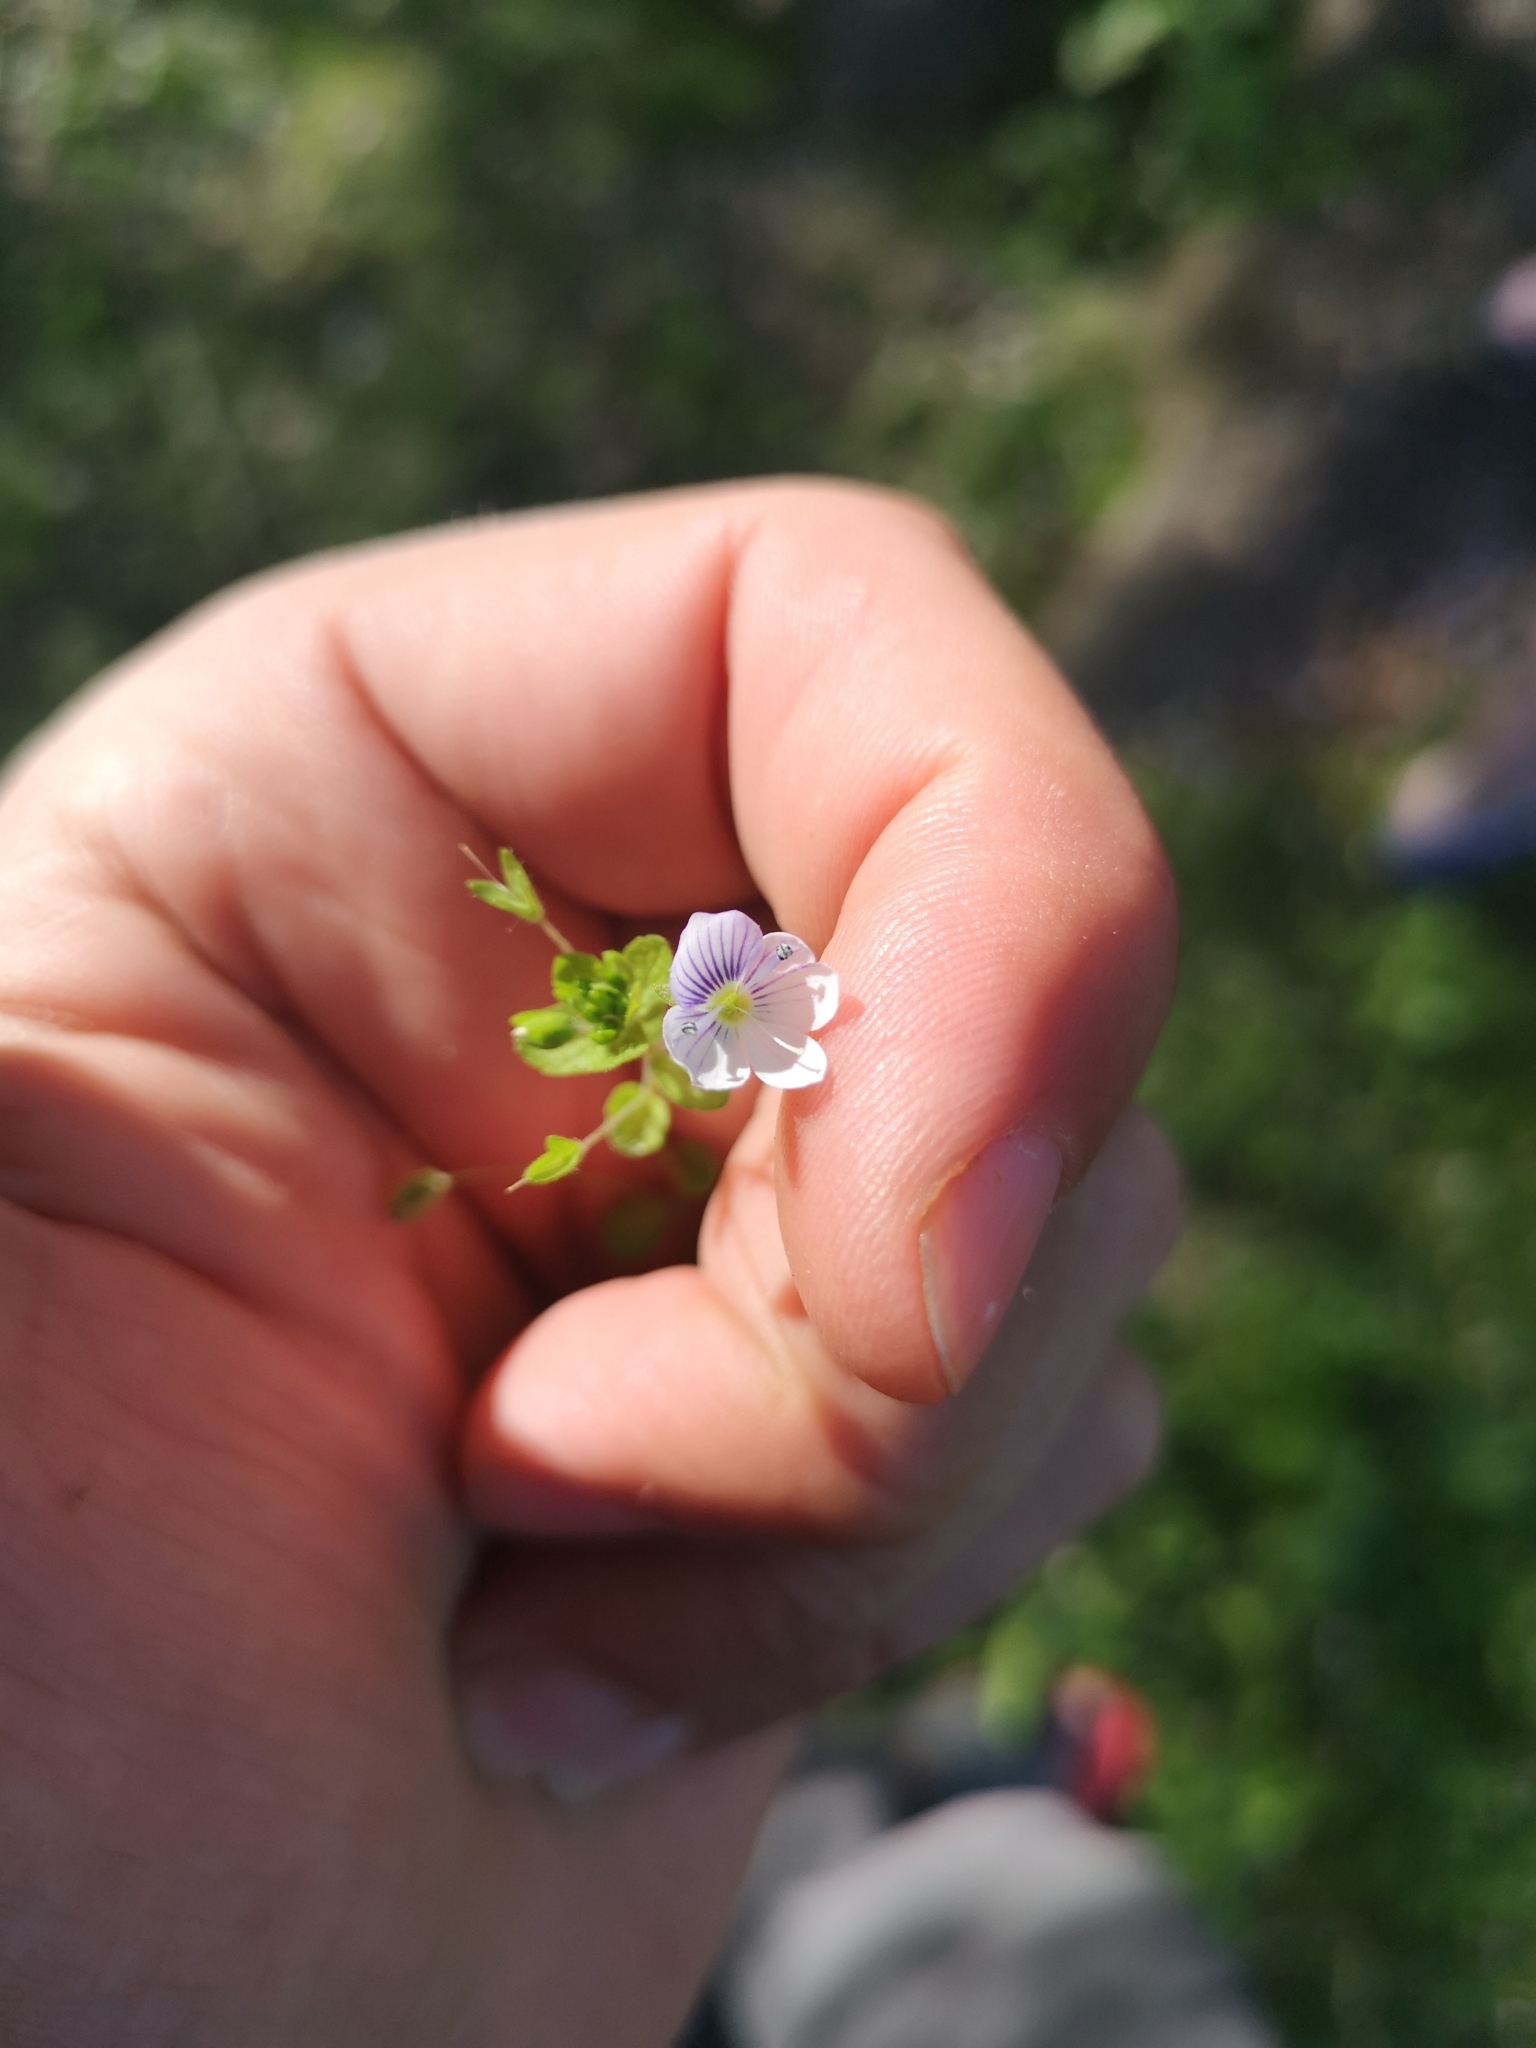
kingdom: Plantae
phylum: Tracheophyta
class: Magnoliopsida
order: Lamiales
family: Plantaginaceae
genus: Veronica
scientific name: Veronica filiformis
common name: Slender speedwell
